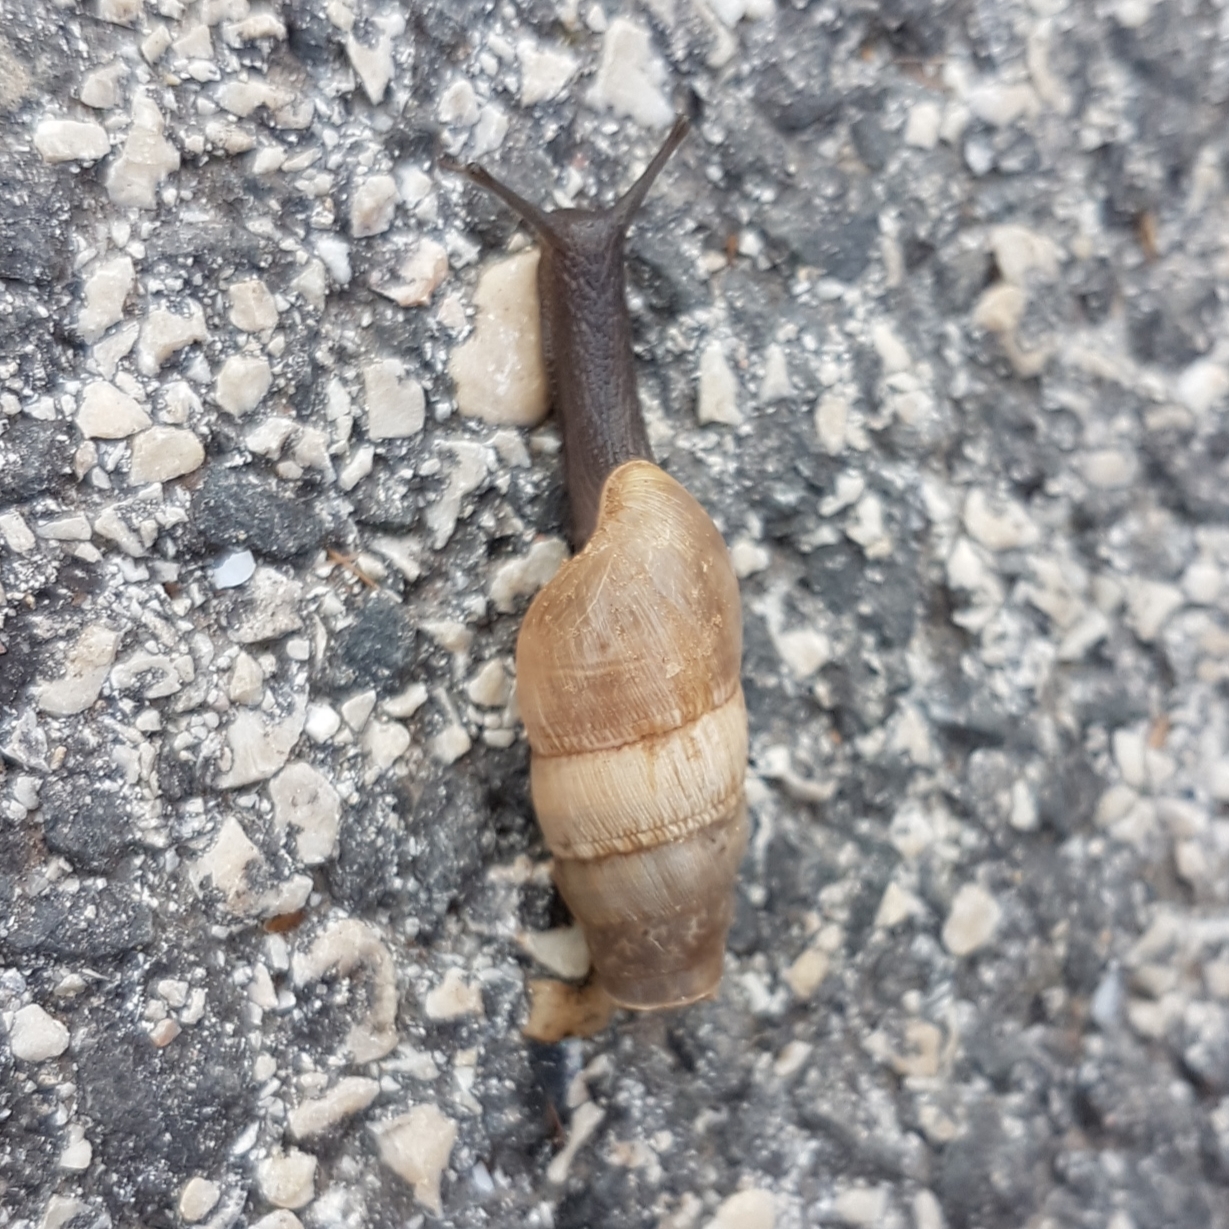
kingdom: Animalia
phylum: Mollusca
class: Gastropoda
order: Stylommatophora
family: Achatinidae
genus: Rumina
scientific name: Rumina decollata
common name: Decollate snail
